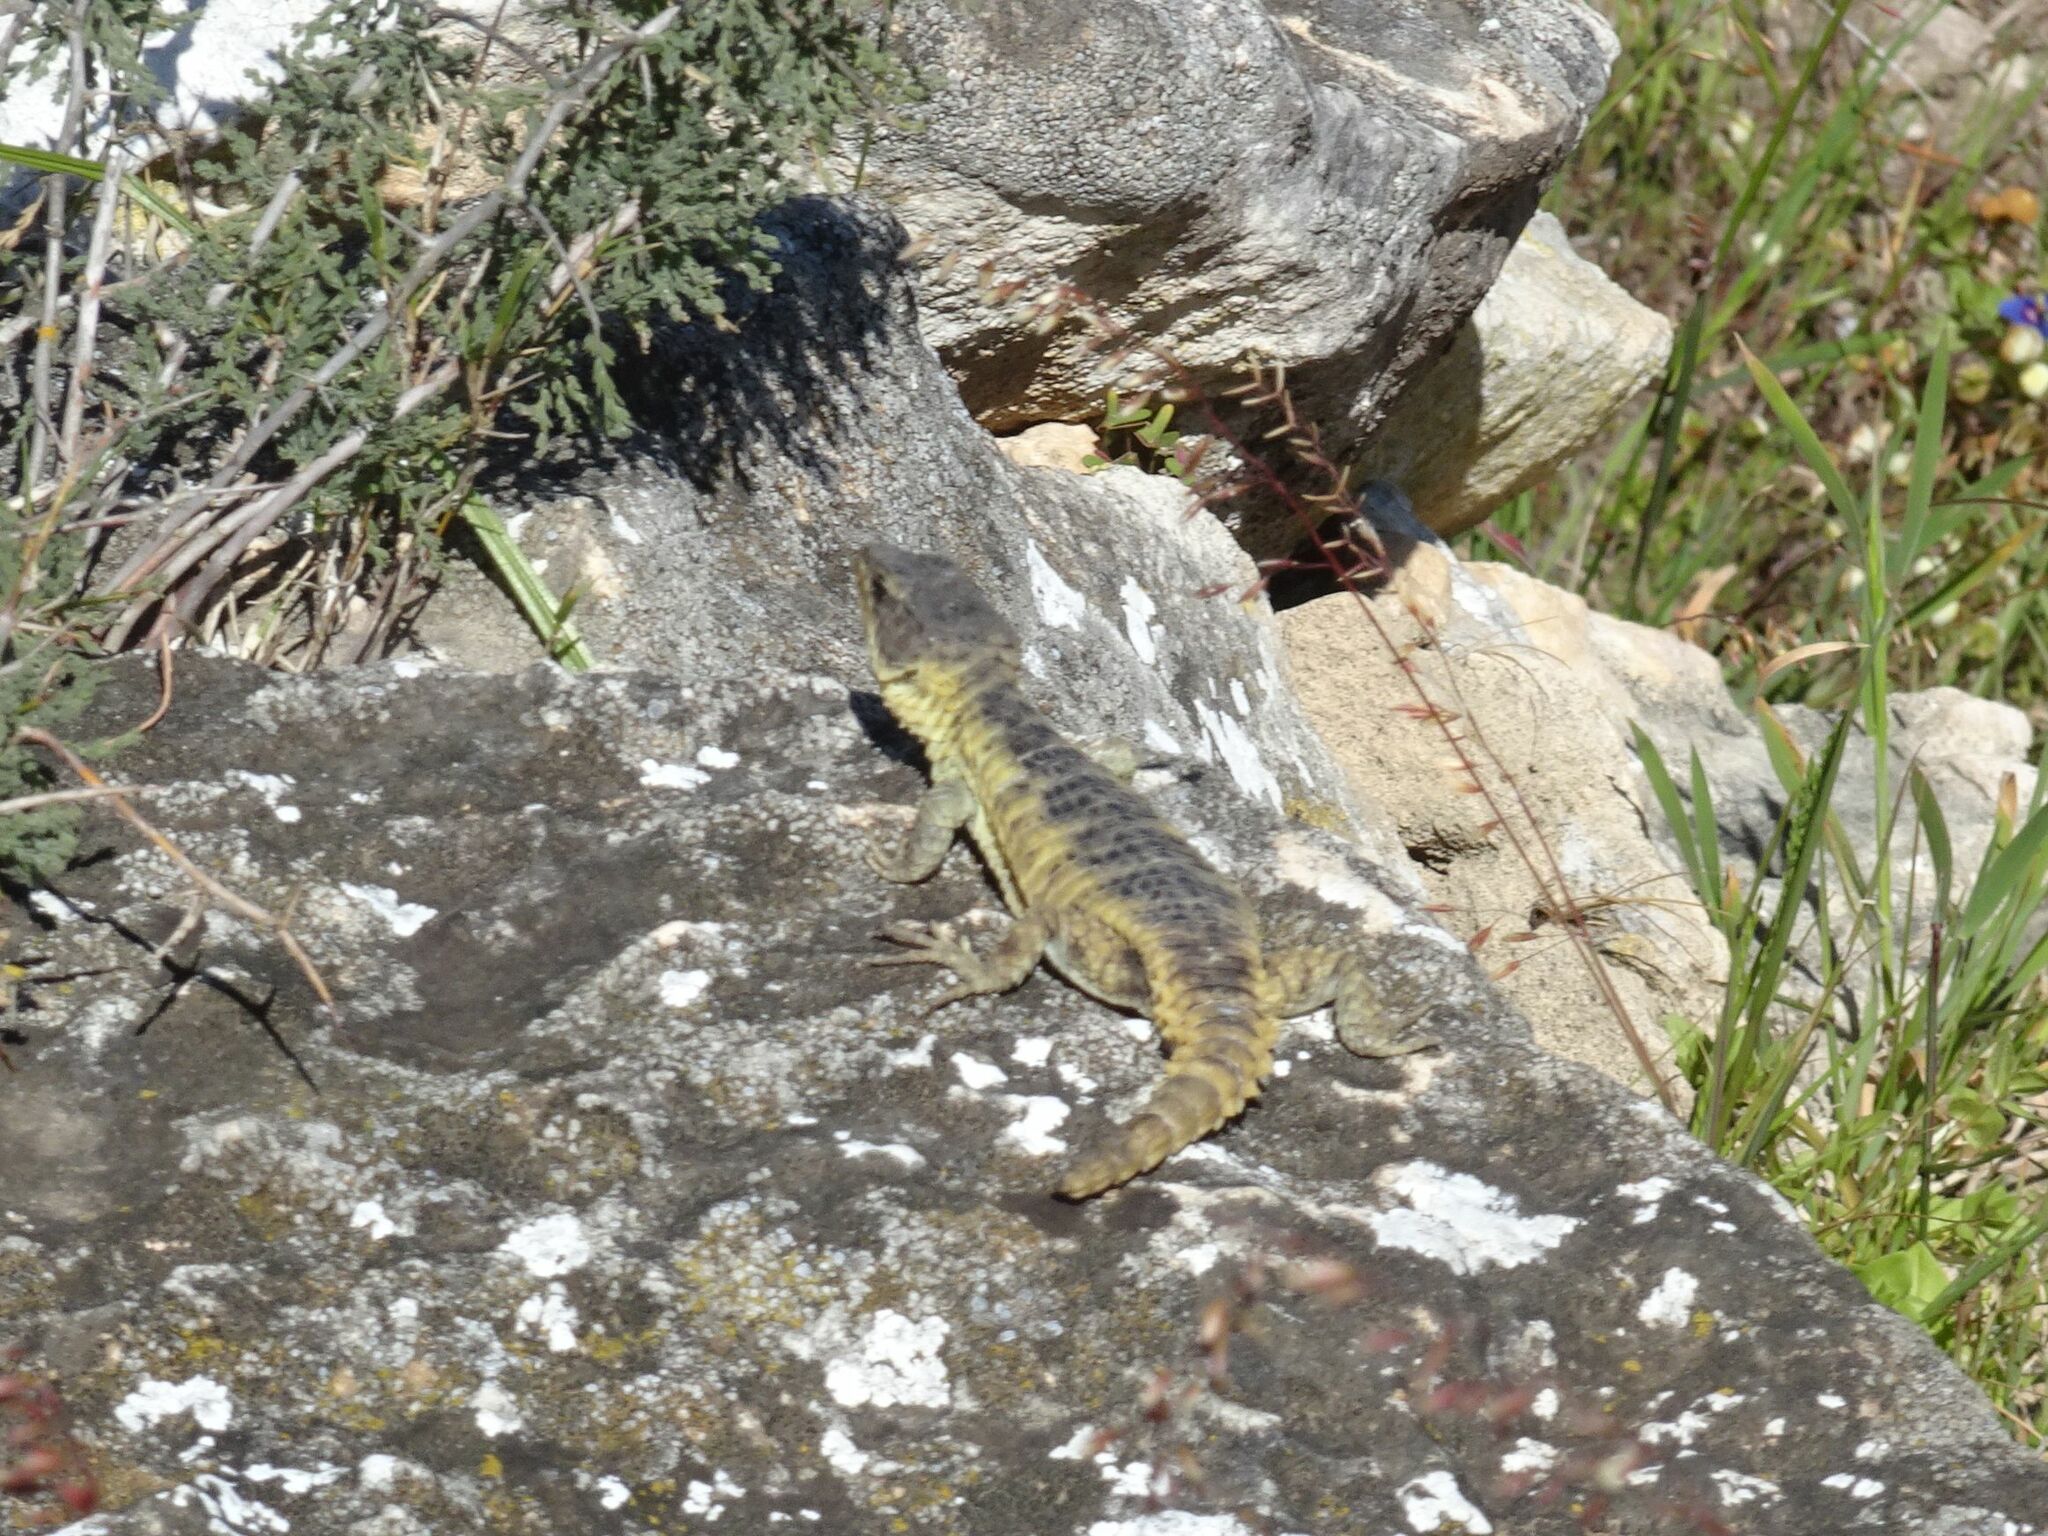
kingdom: Animalia
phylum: Chordata
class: Squamata
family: Cordylidae
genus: Cordylus
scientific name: Cordylus cordylus
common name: Cape girdled lizard
